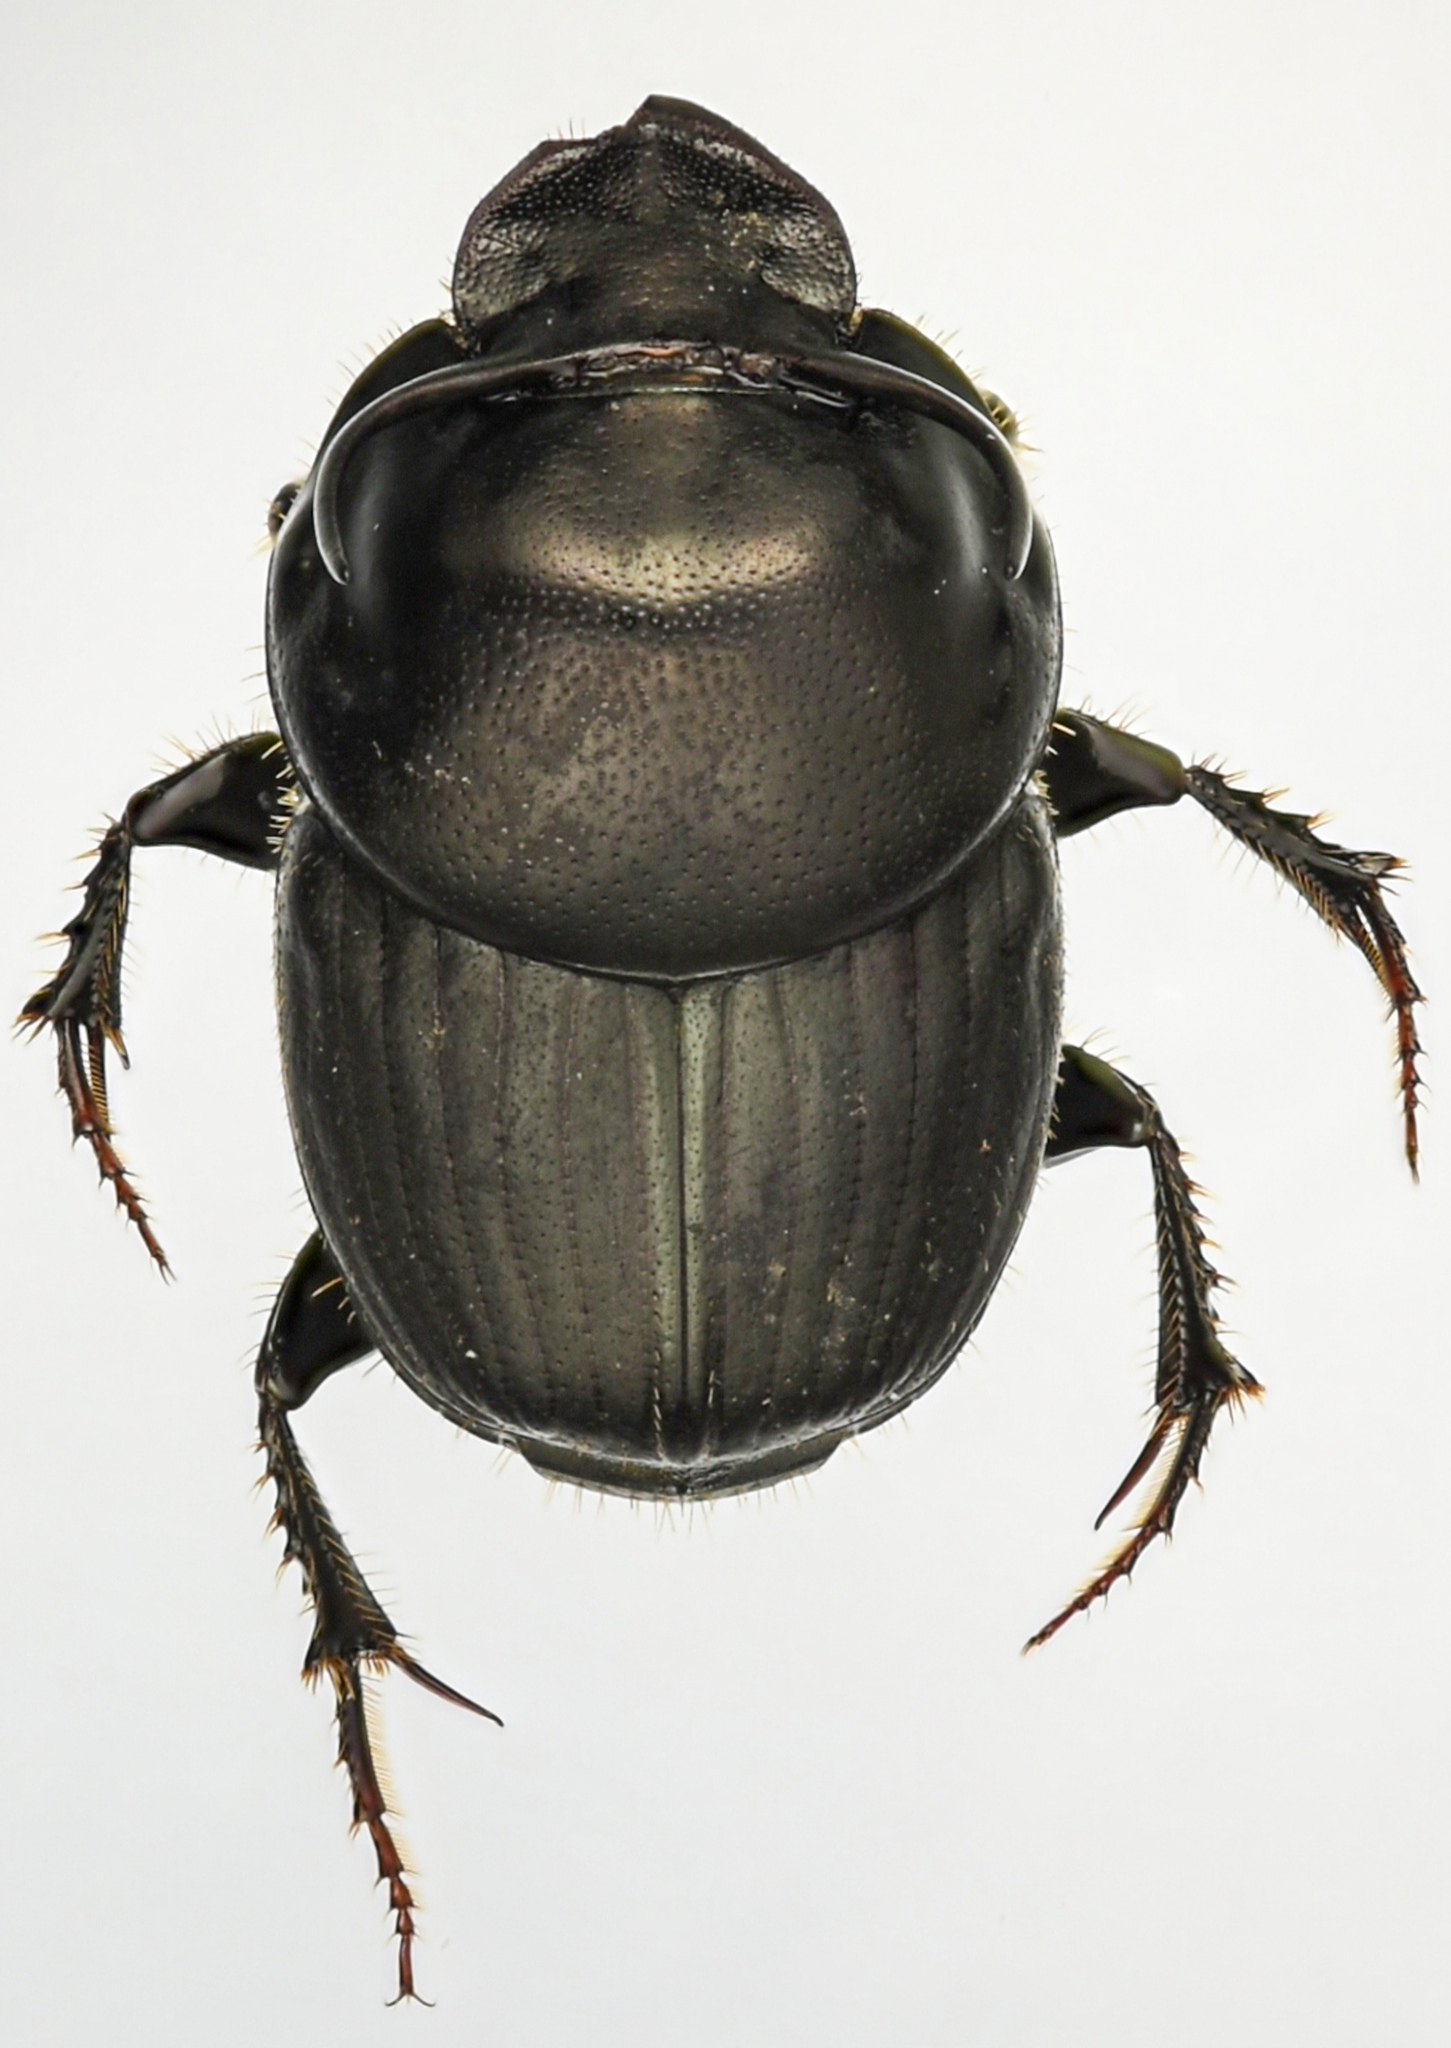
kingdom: Animalia
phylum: Arthropoda
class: Insecta
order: Coleoptera
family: Scarabaeidae
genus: Onthophagus
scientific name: Onthophagus taurus
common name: Bullhorned dung beetle
